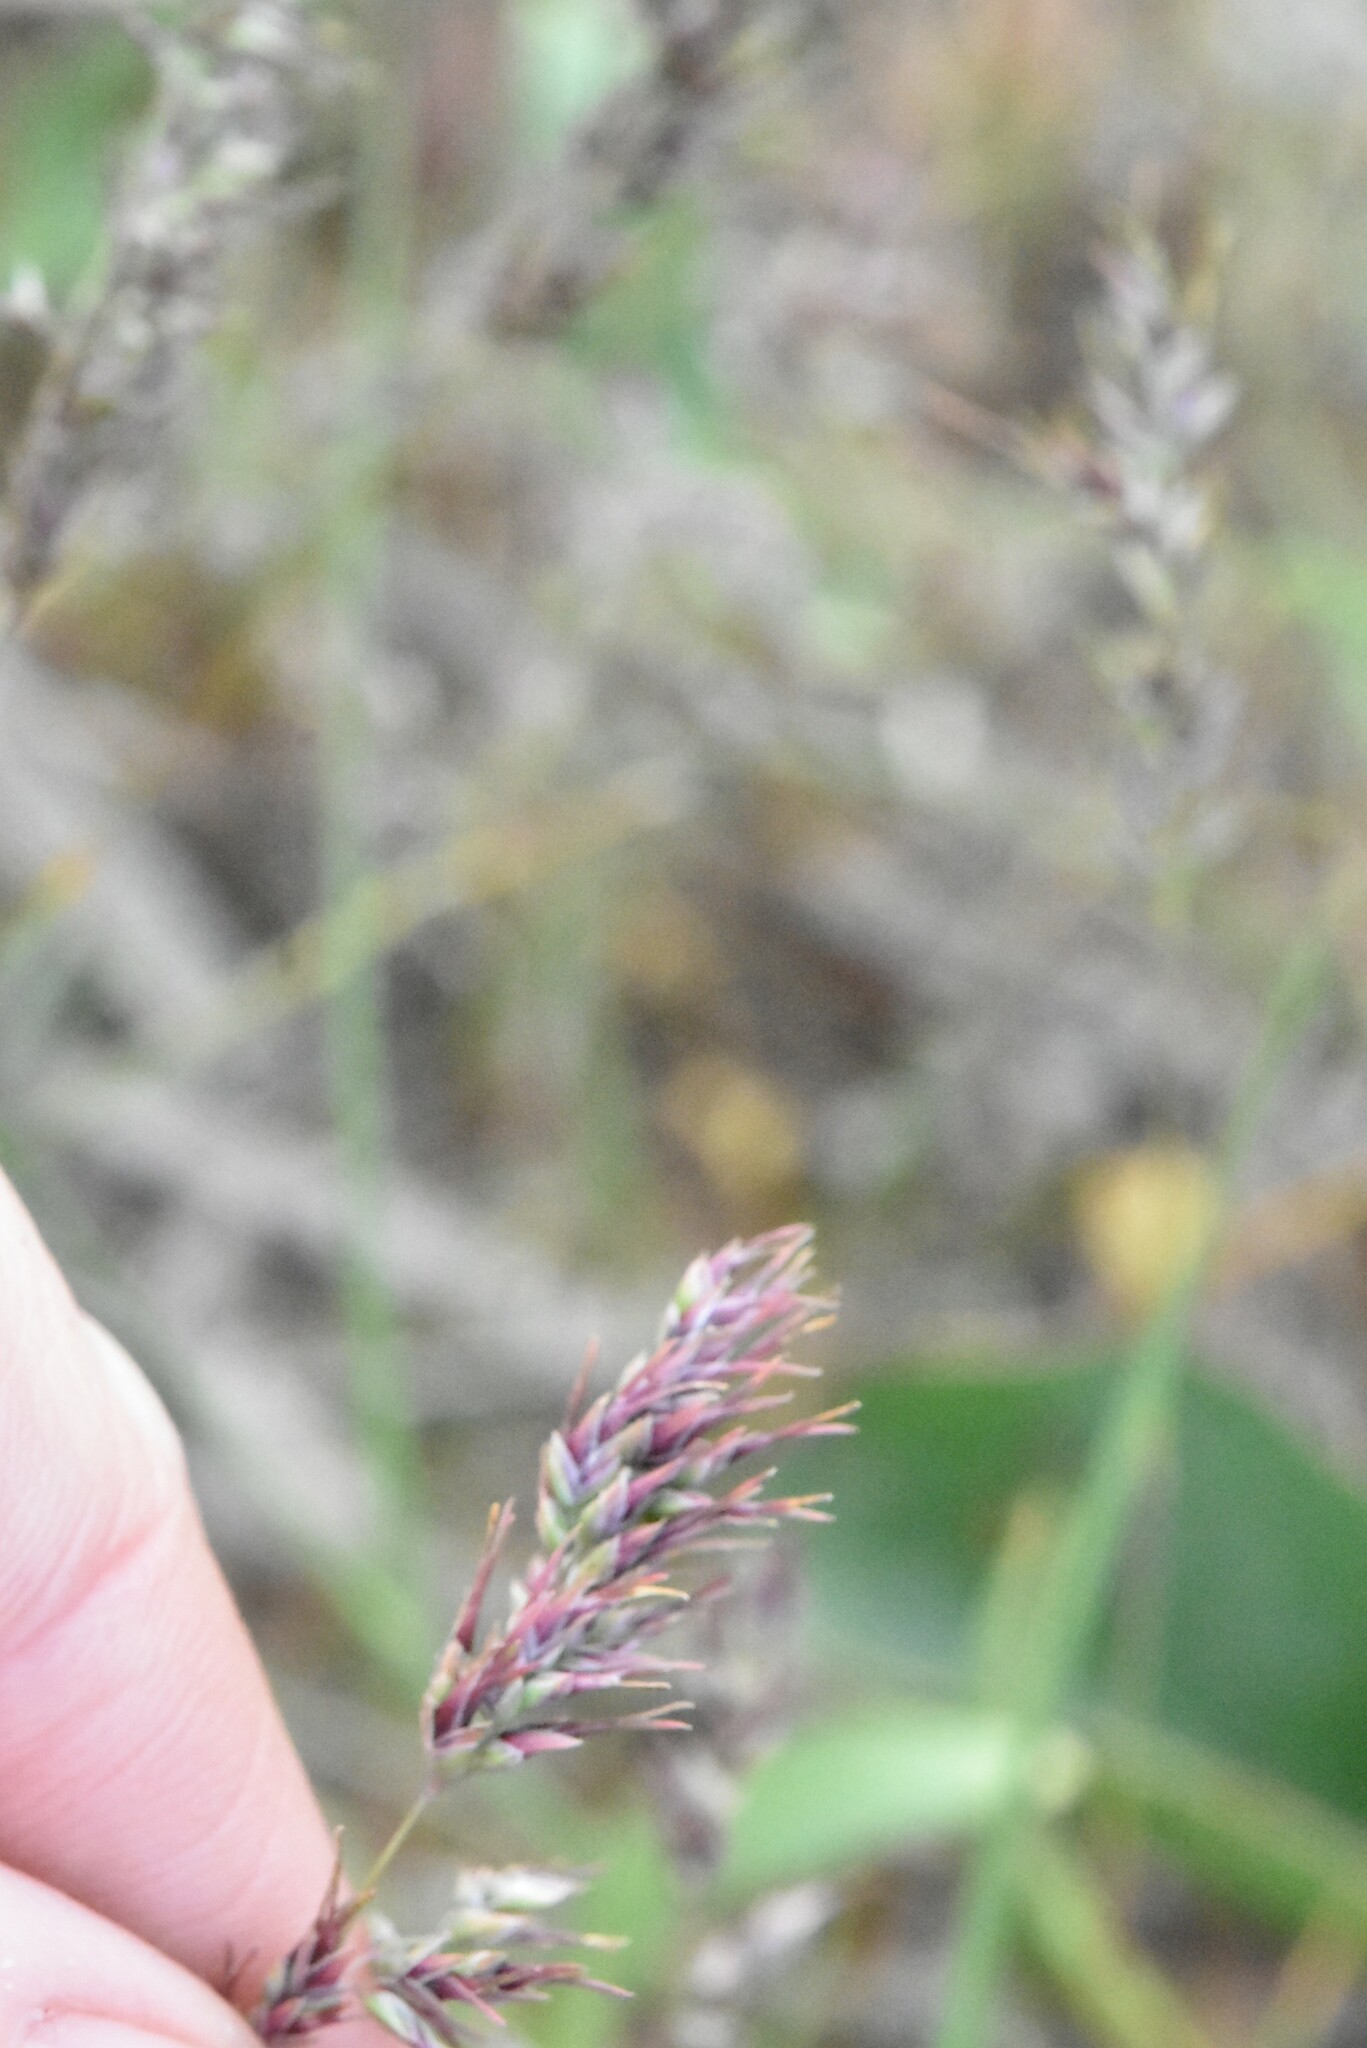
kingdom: Plantae
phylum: Tracheophyta
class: Liliopsida
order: Poales
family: Poaceae
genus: Poa
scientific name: Poa bulbosa
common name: Bulbous bluegrass
